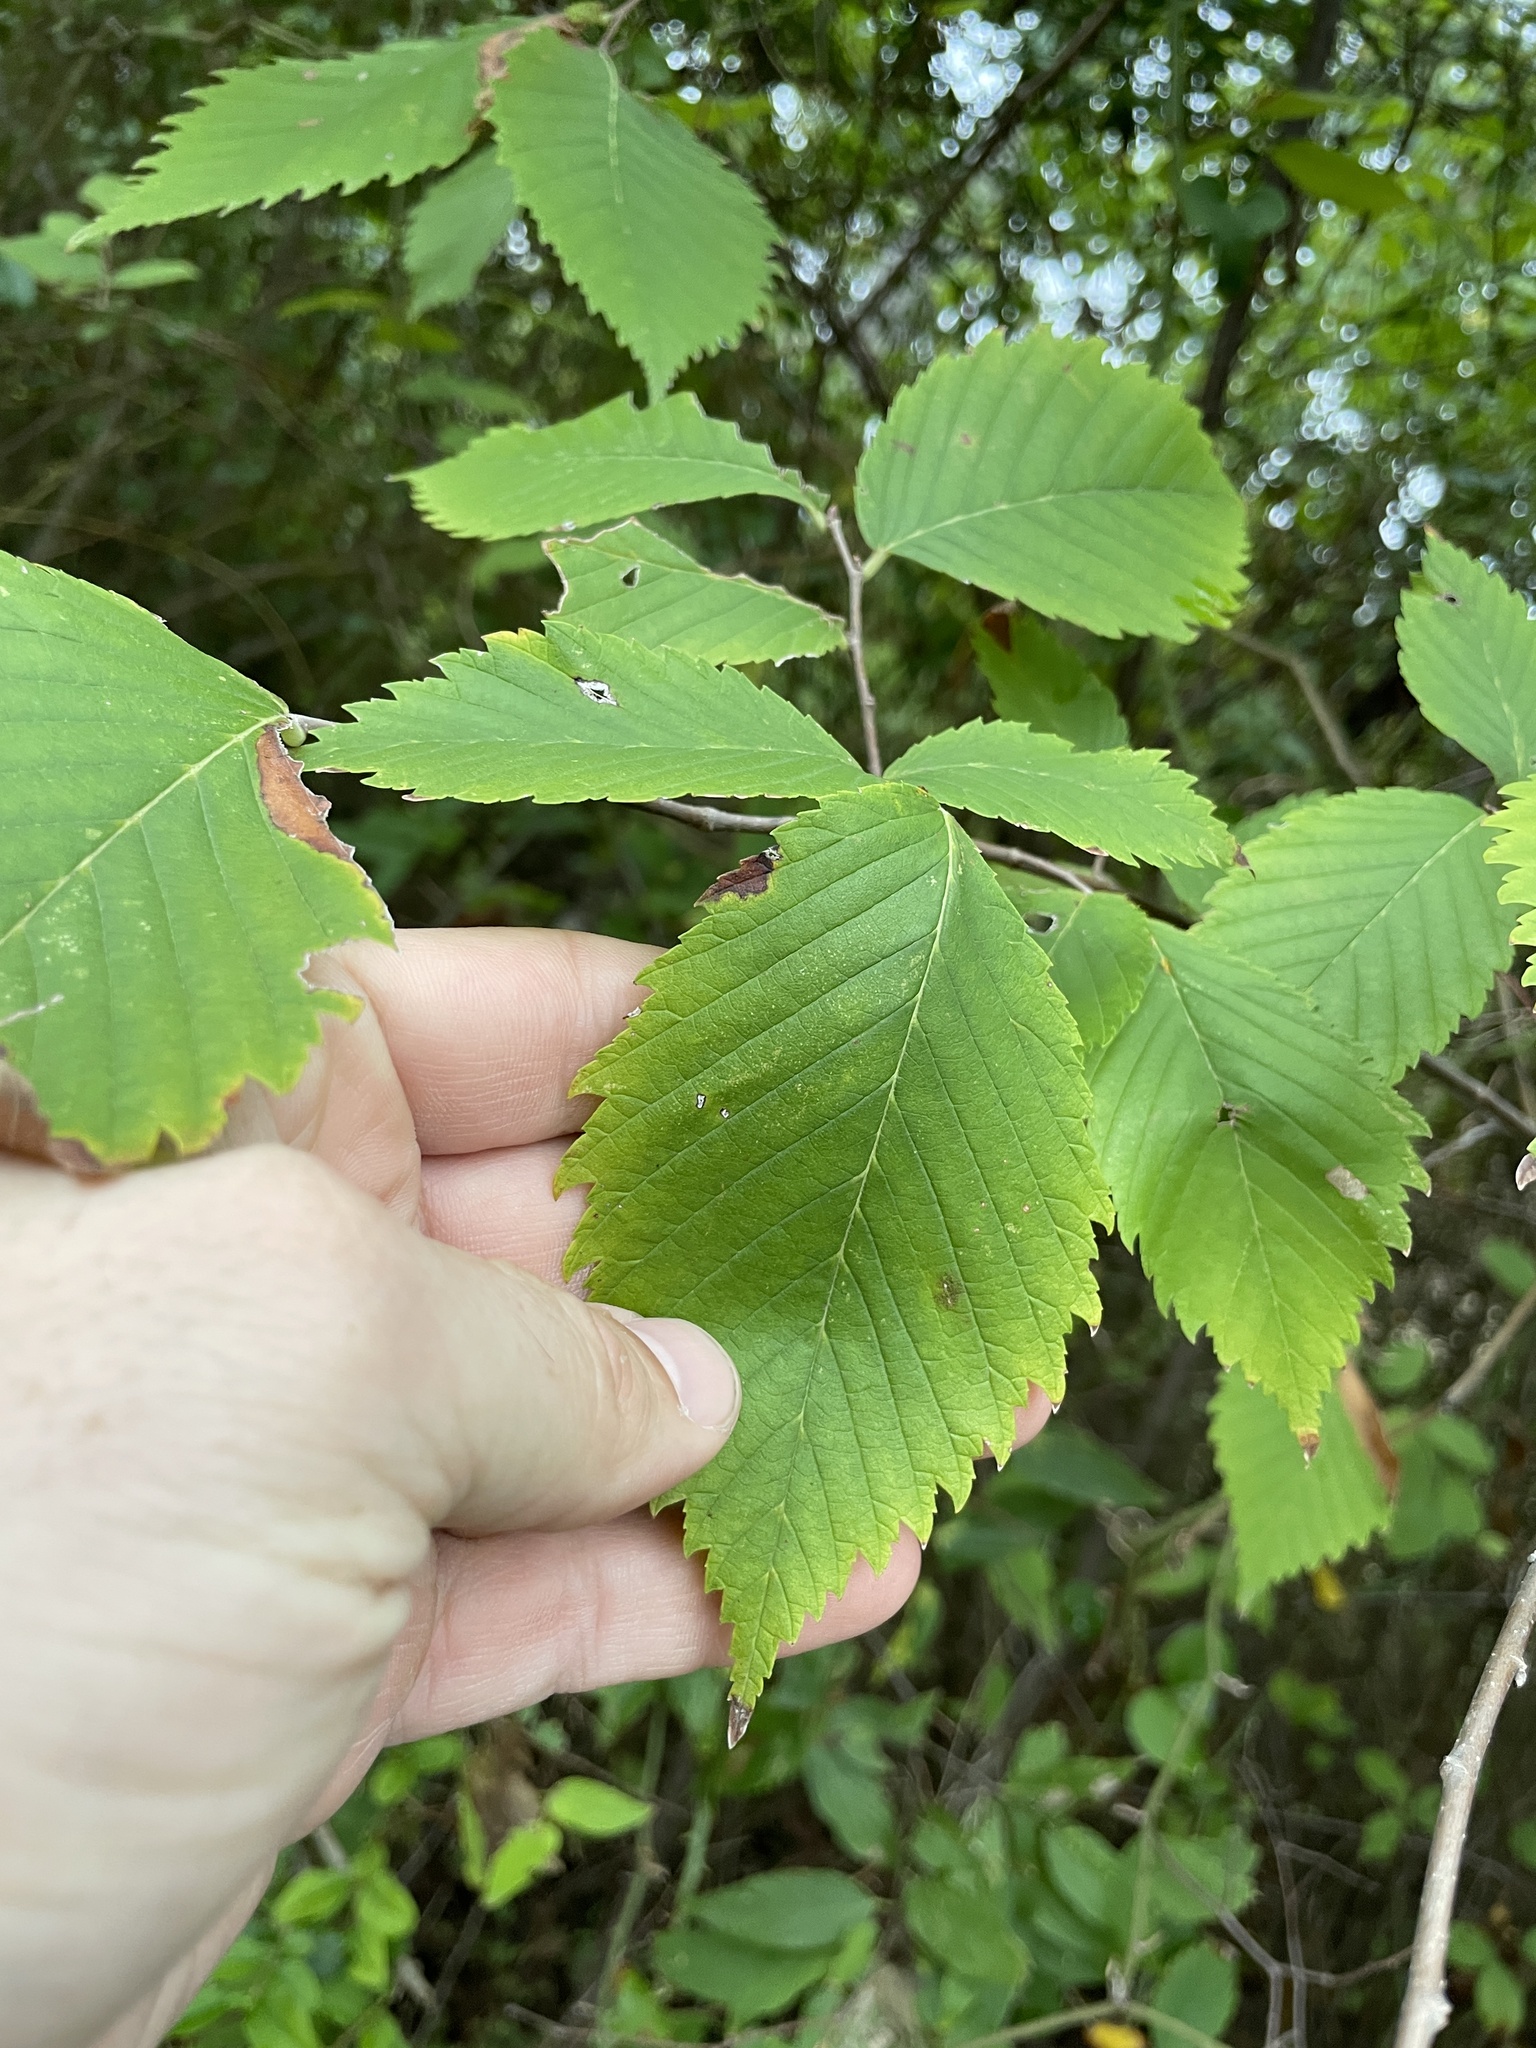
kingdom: Plantae
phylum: Tracheophyta
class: Magnoliopsida
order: Rosales
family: Ulmaceae
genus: Ulmus
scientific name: Ulmus americana
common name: American elm
